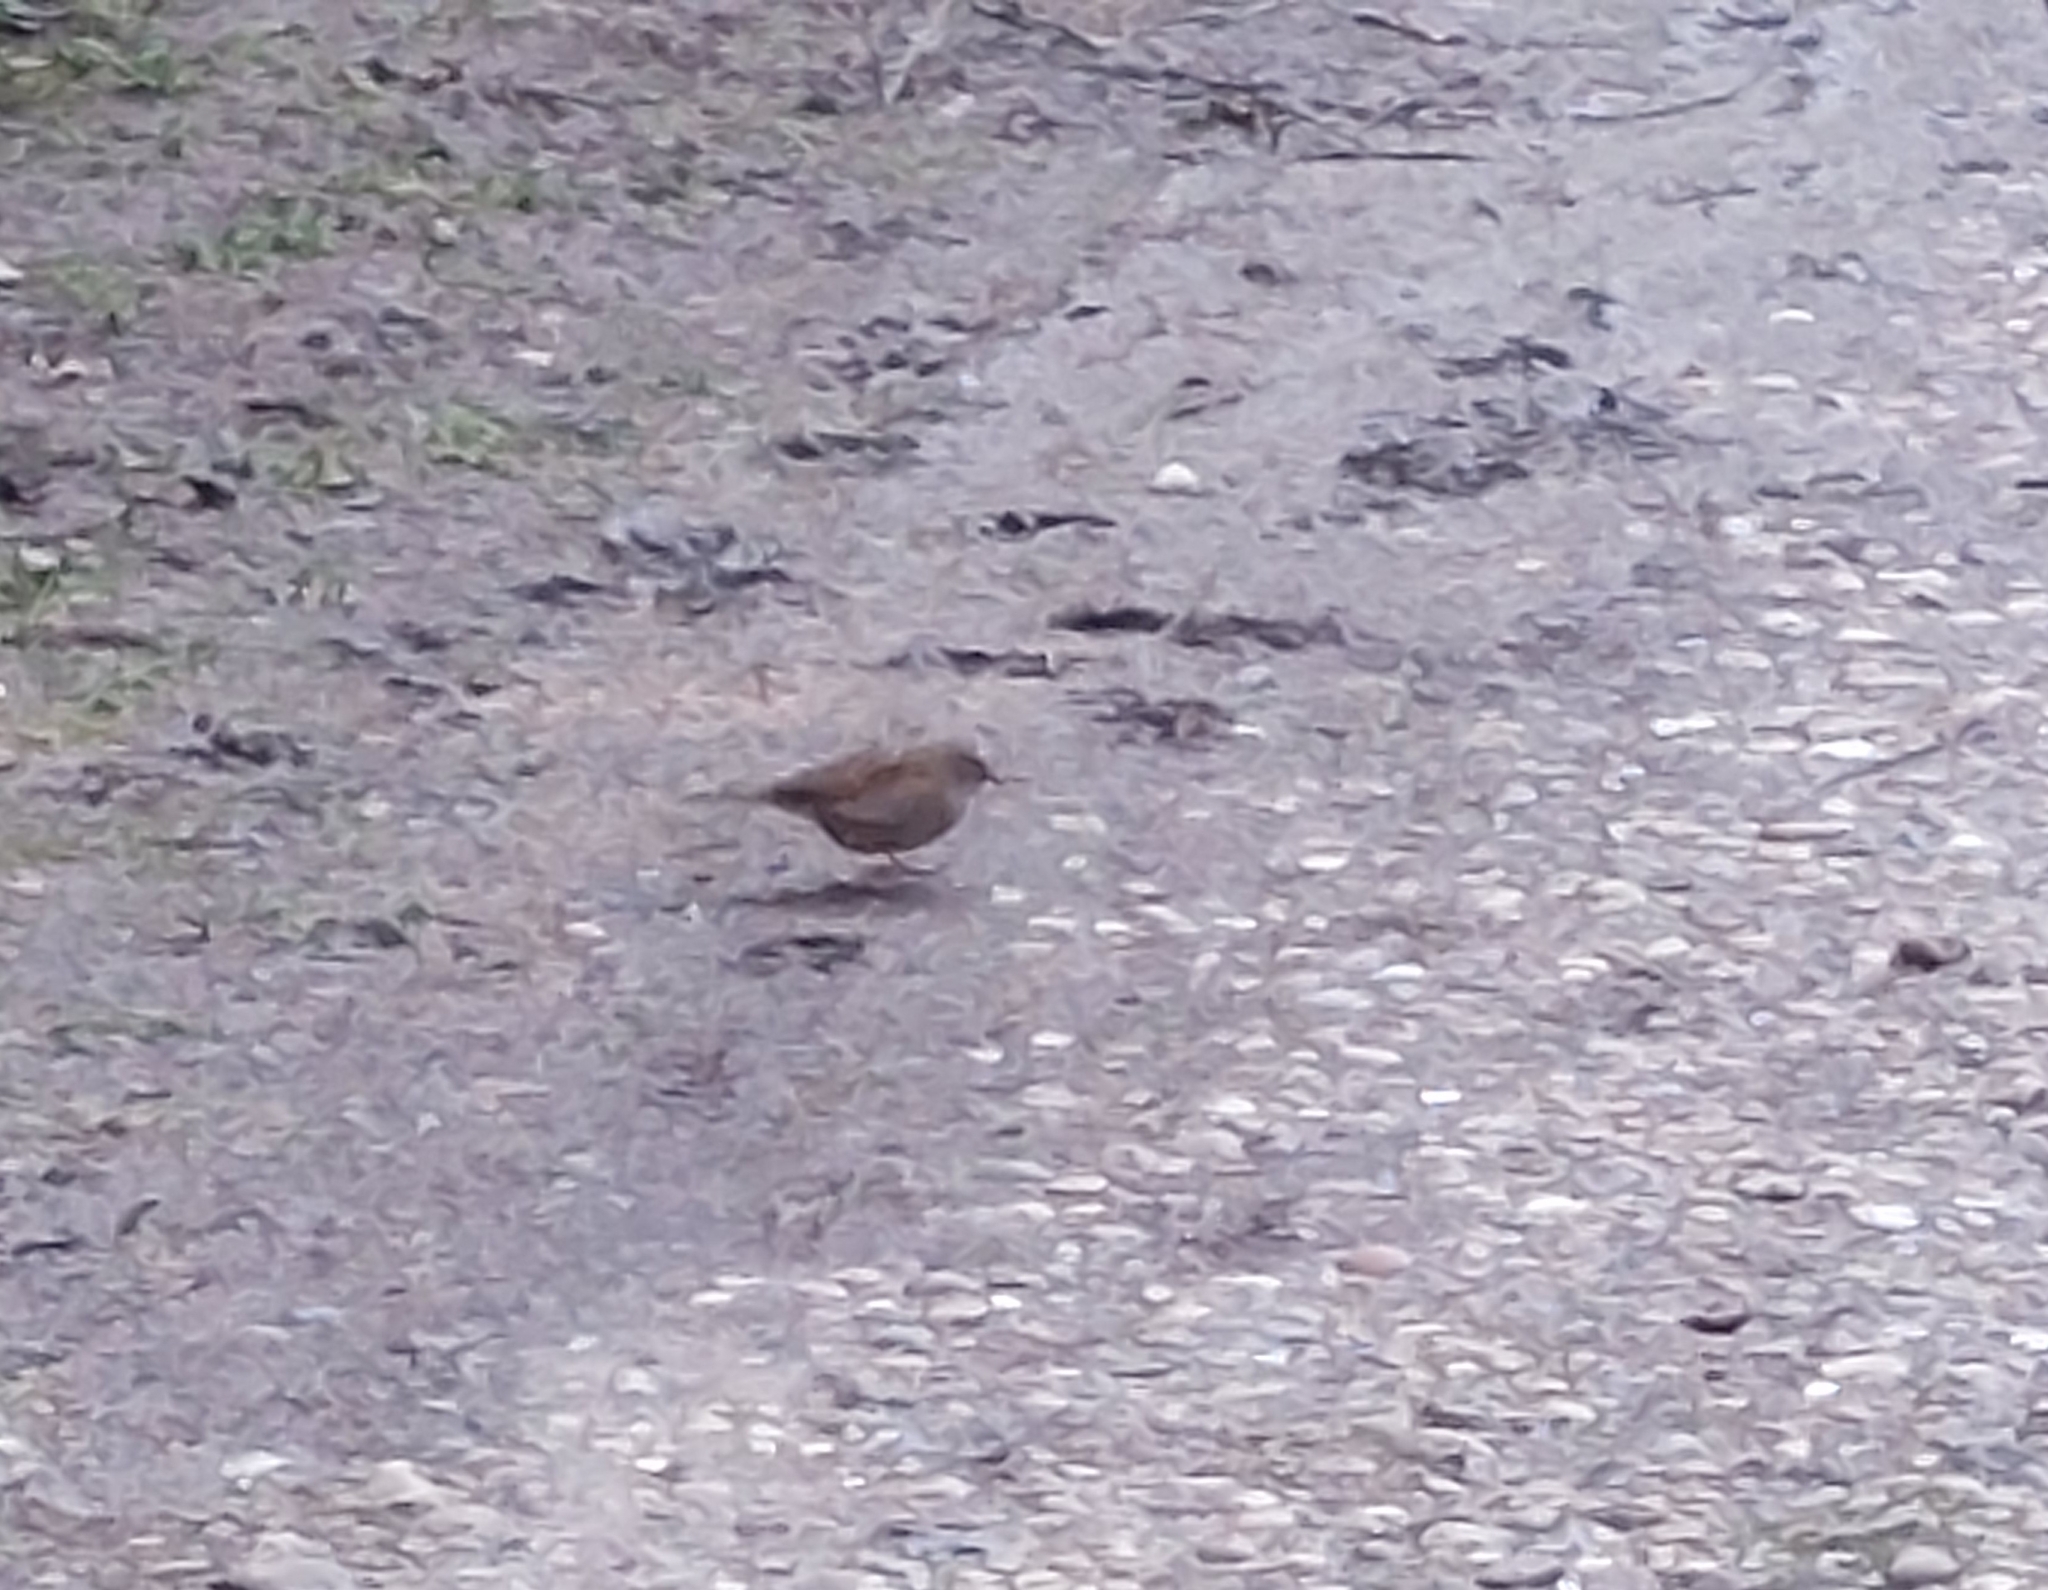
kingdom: Animalia
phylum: Chordata
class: Aves
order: Passeriformes
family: Prunellidae
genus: Prunella
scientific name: Prunella modularis
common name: Dunnock
